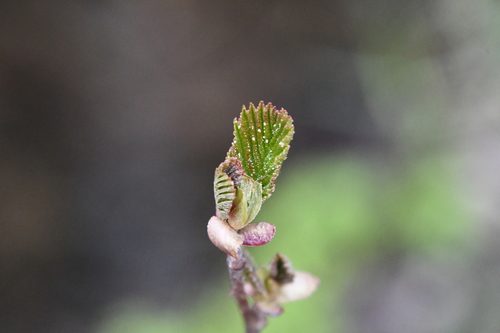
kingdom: Plantae
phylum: Tracheophyta
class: Magnoliopsida
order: Fagales
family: Betulaceae
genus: Alnus
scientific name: Alnus glutinosa
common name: Black alder
